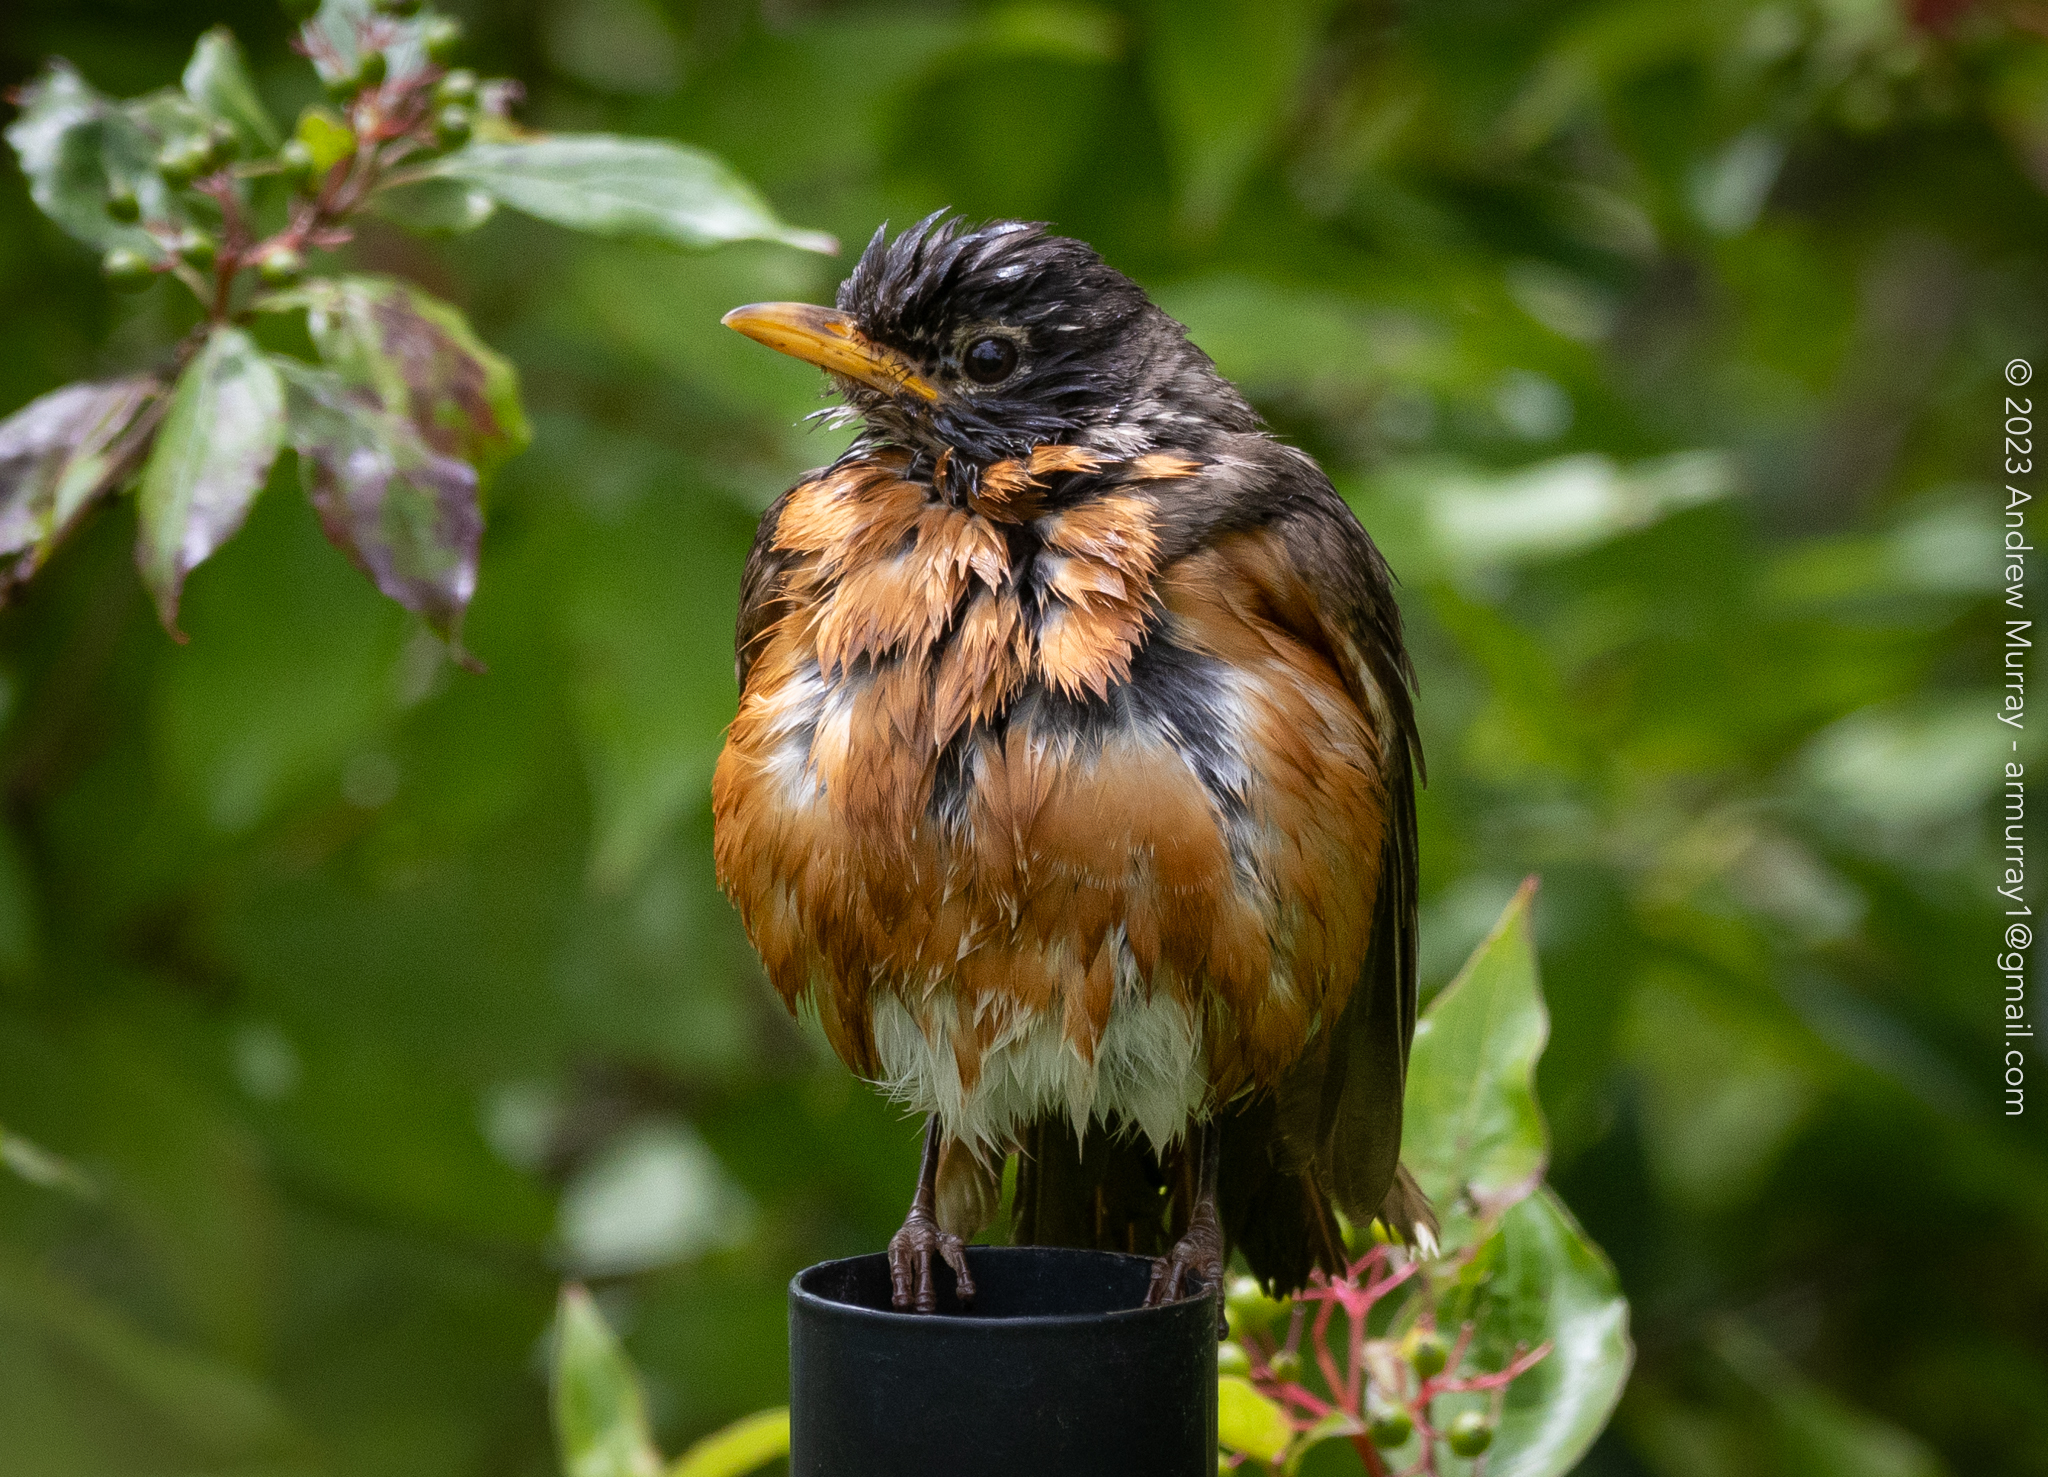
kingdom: Animalia
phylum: Chordata
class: Aves
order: Passeriformes
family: Turdidae
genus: Turdus
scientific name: Turdus migratorius
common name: American robin
